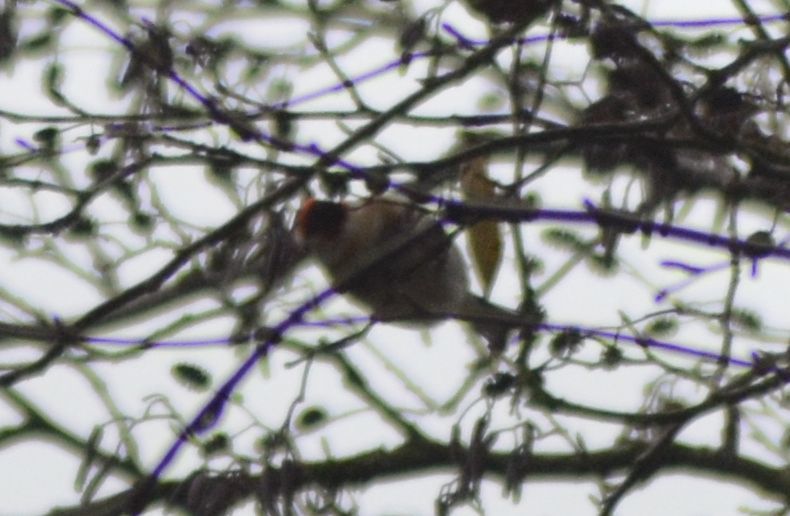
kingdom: Animalia
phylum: Chordata
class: Aves
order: Passeriformes
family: Fringillidae
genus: Carduelis
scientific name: Carduelis carduelis
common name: European goldfinch
